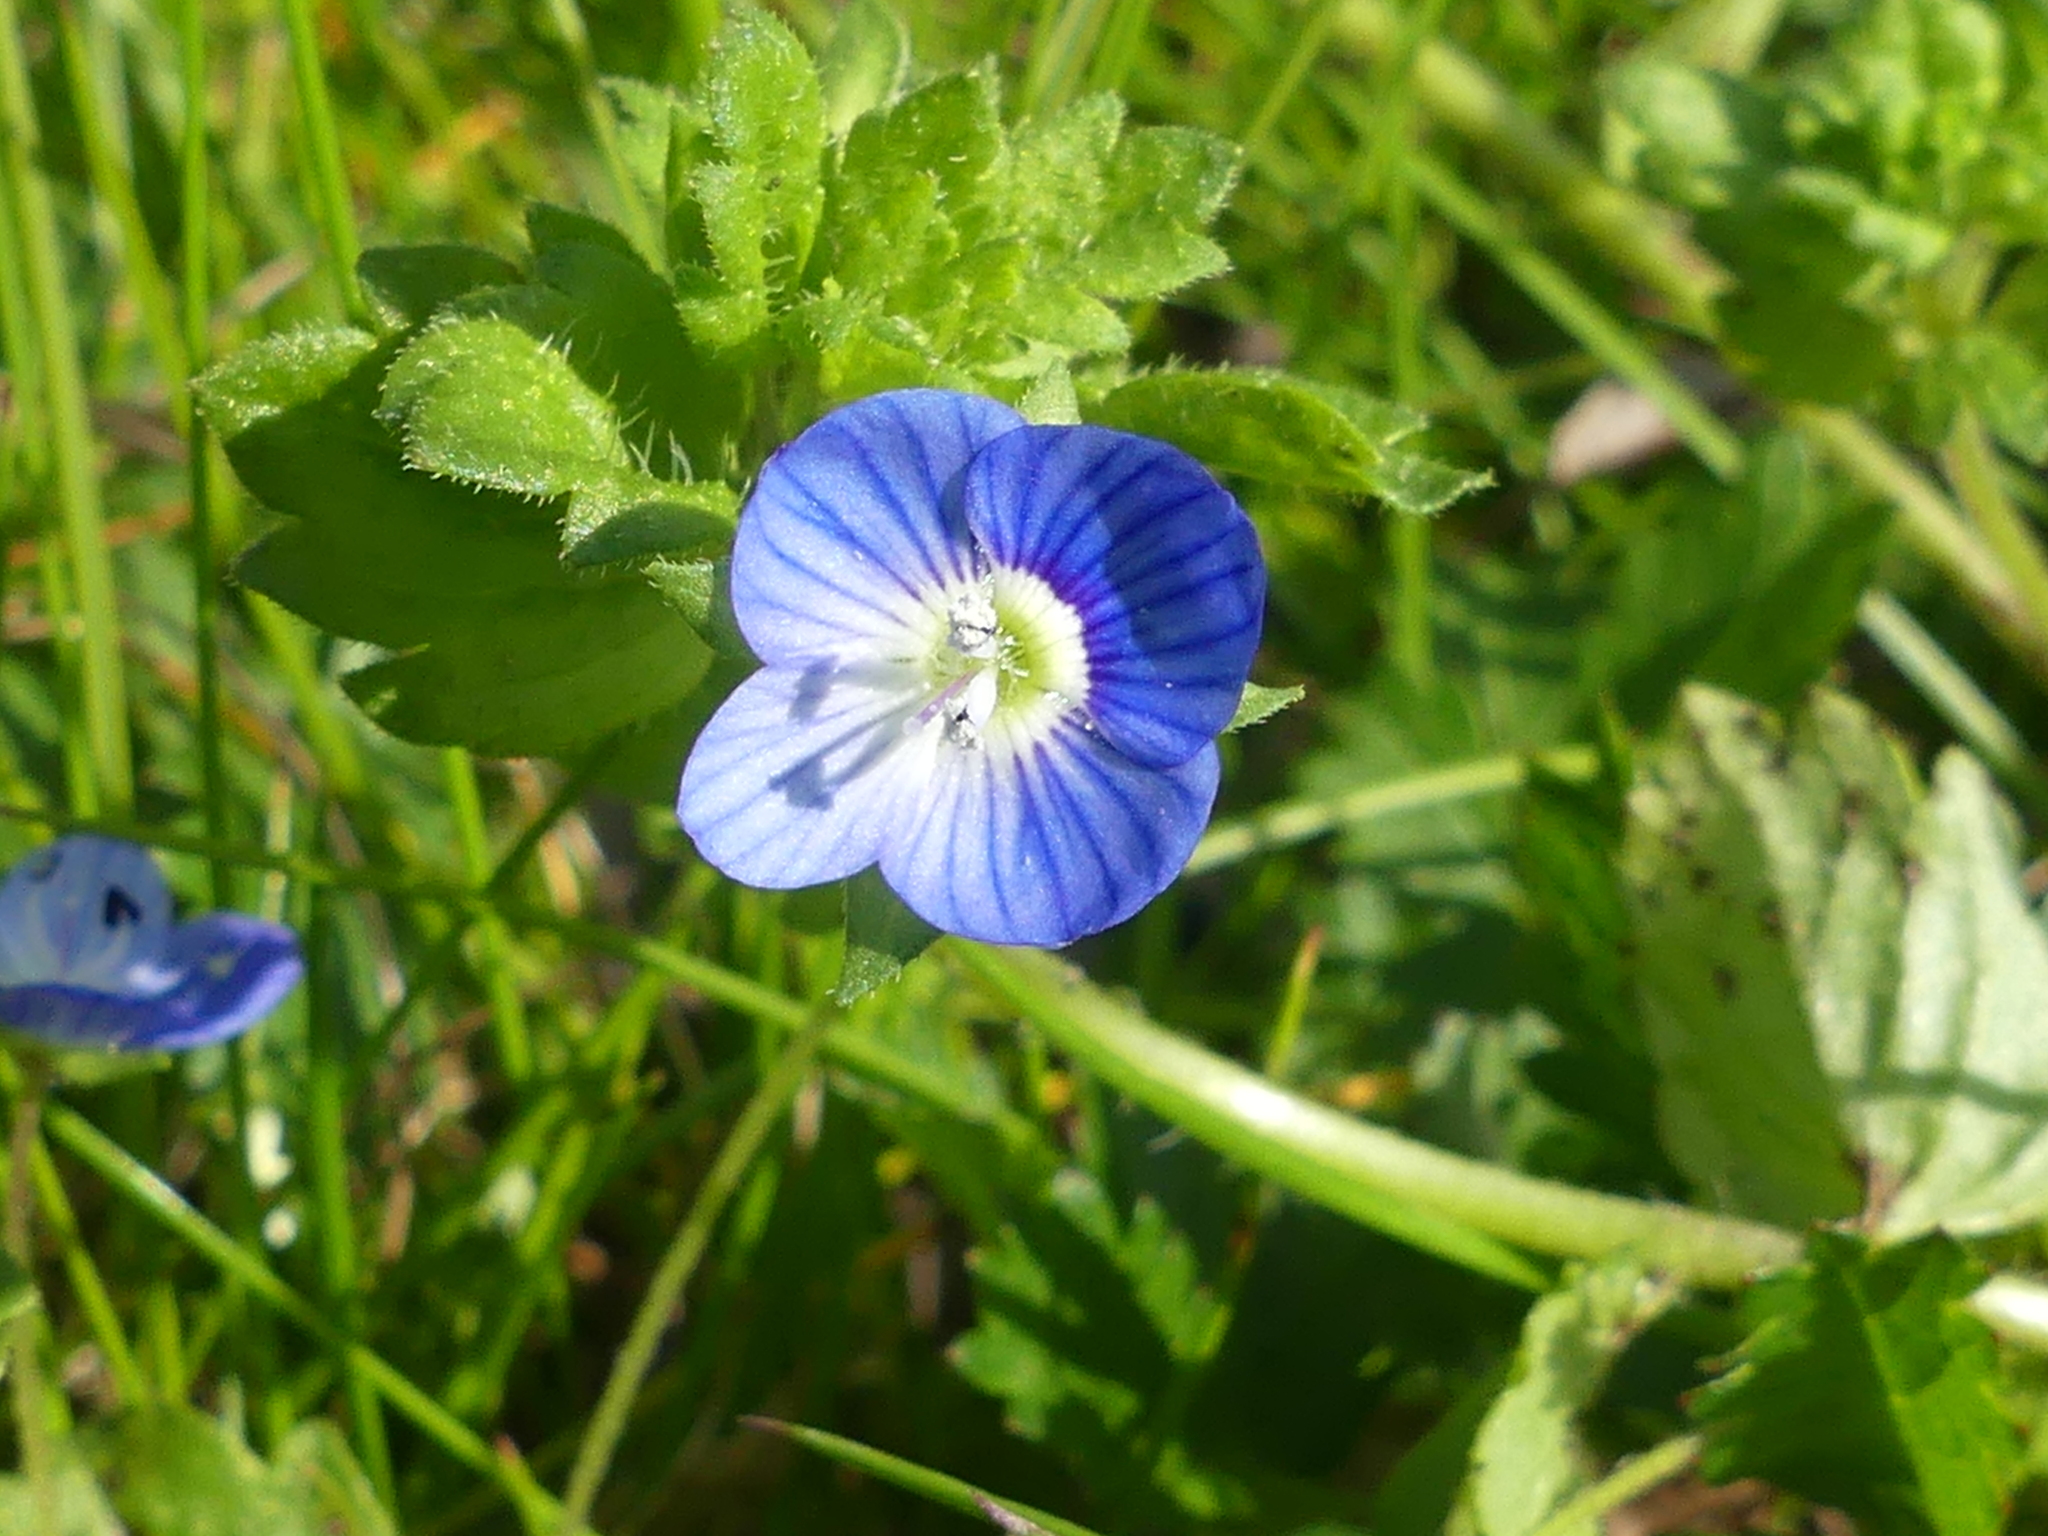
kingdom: Plantae
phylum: Tracheophyta
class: Magnoliopsida
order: Lamiales
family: Plantaginaceae
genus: Veronica
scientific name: Veronica persica
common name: Common field-speedwell
